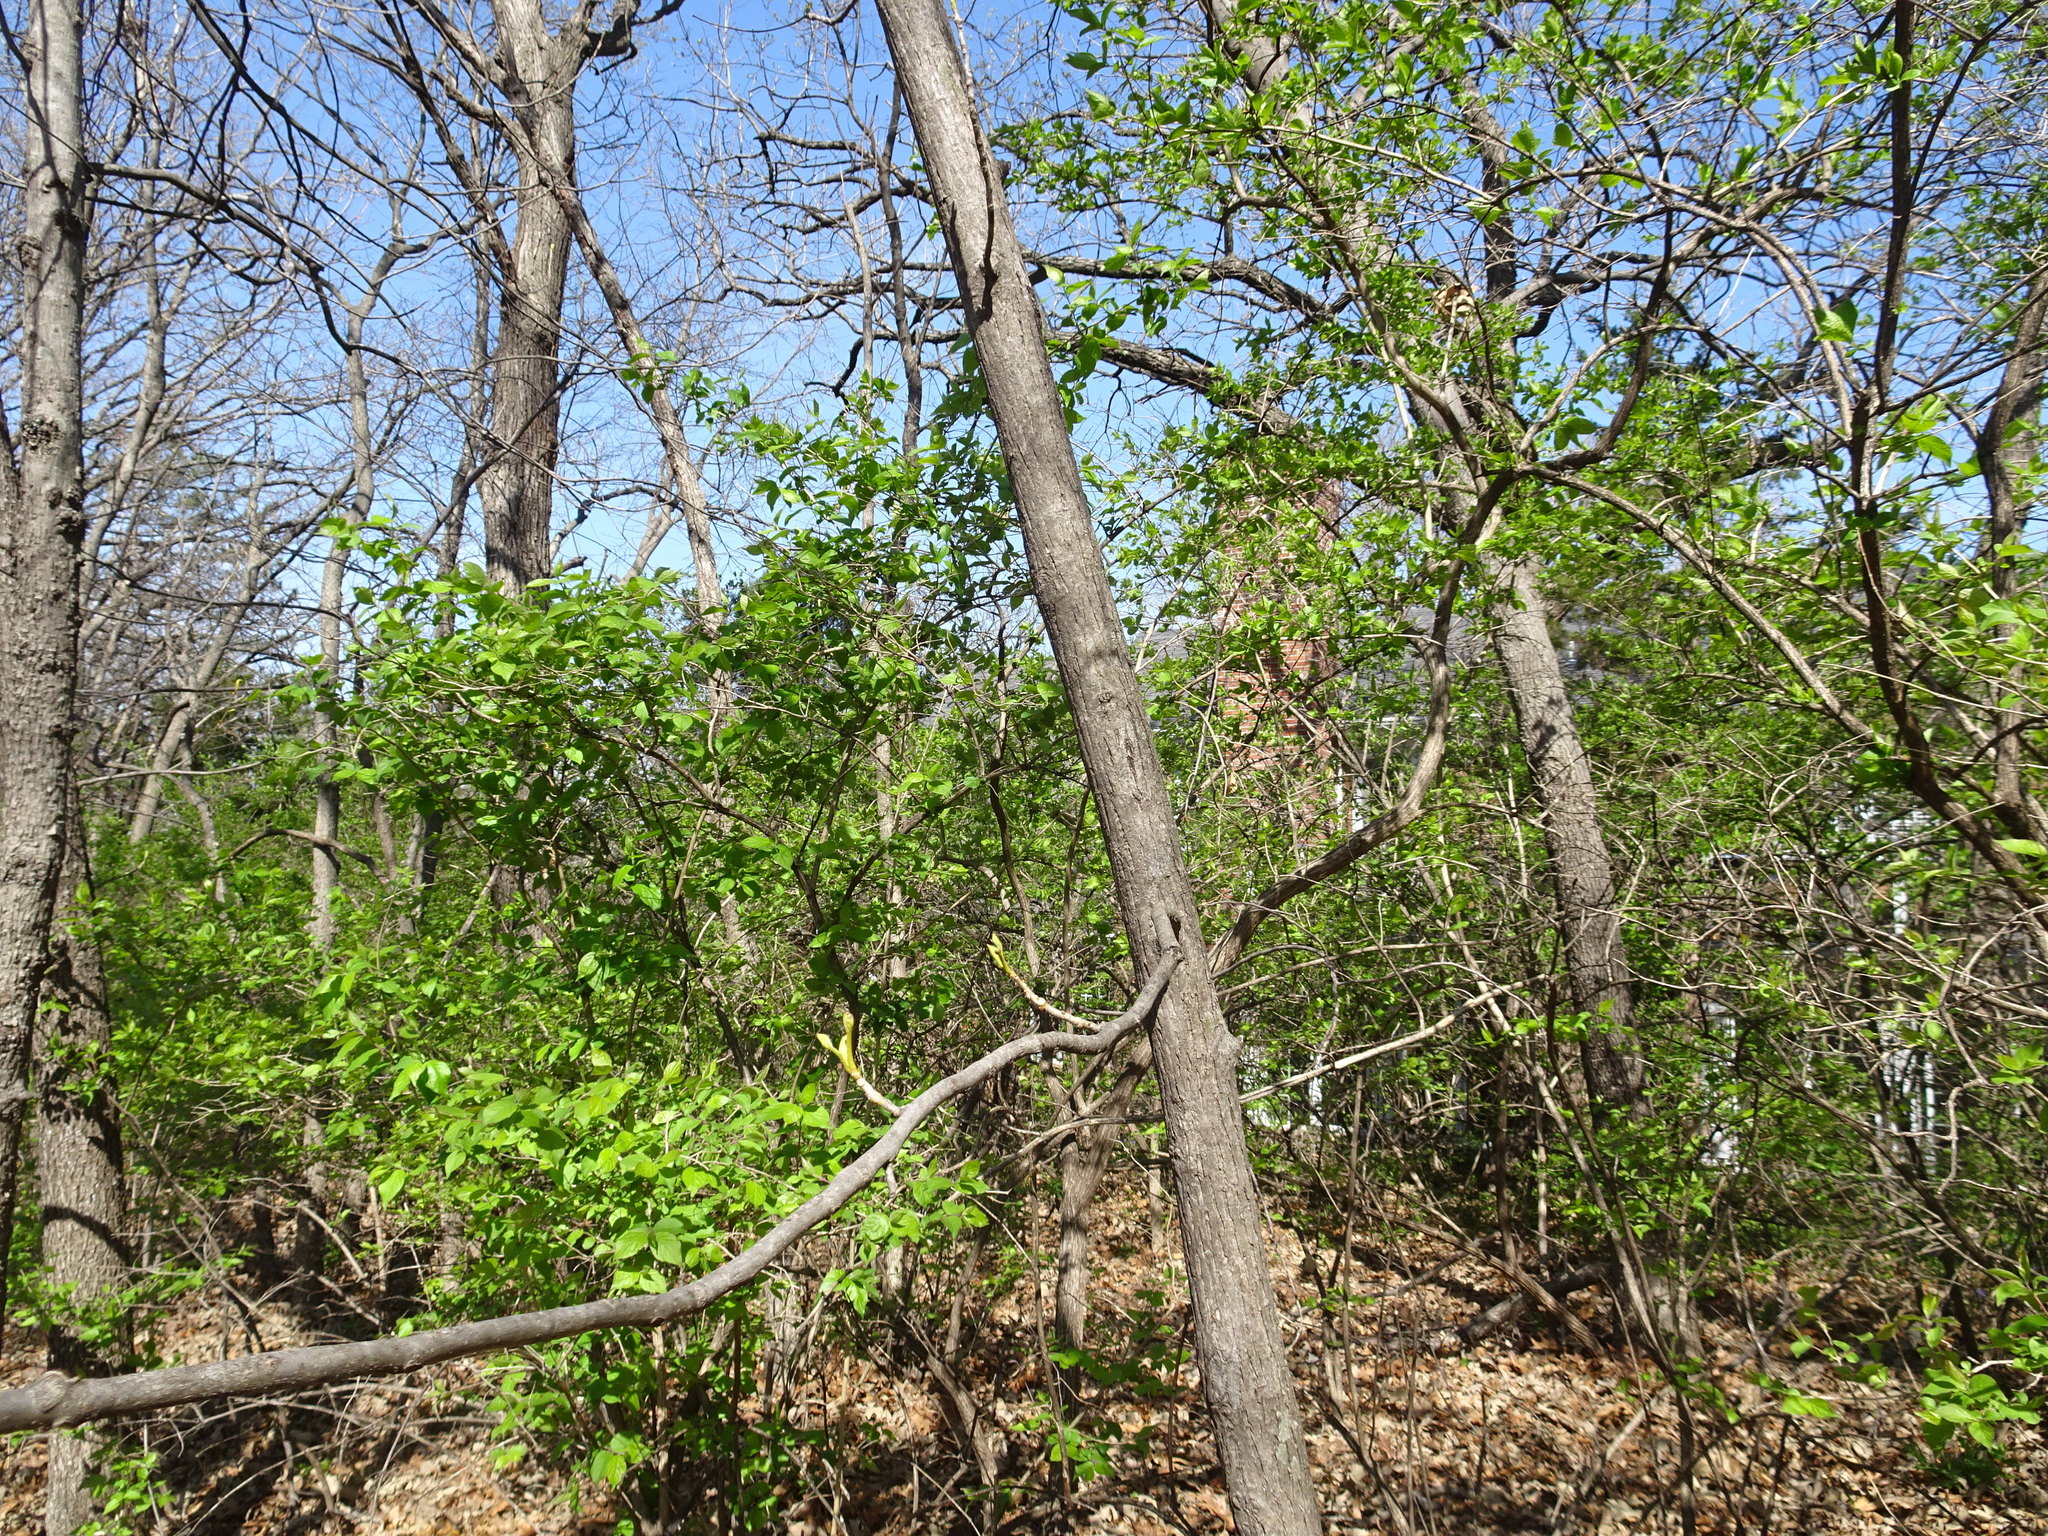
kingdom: Plantae
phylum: Tracheophyta
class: Magnoliopsida
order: Fagales
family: Juglandaceae
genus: Carya
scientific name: Carya cordiformis
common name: Bitternut hickory
